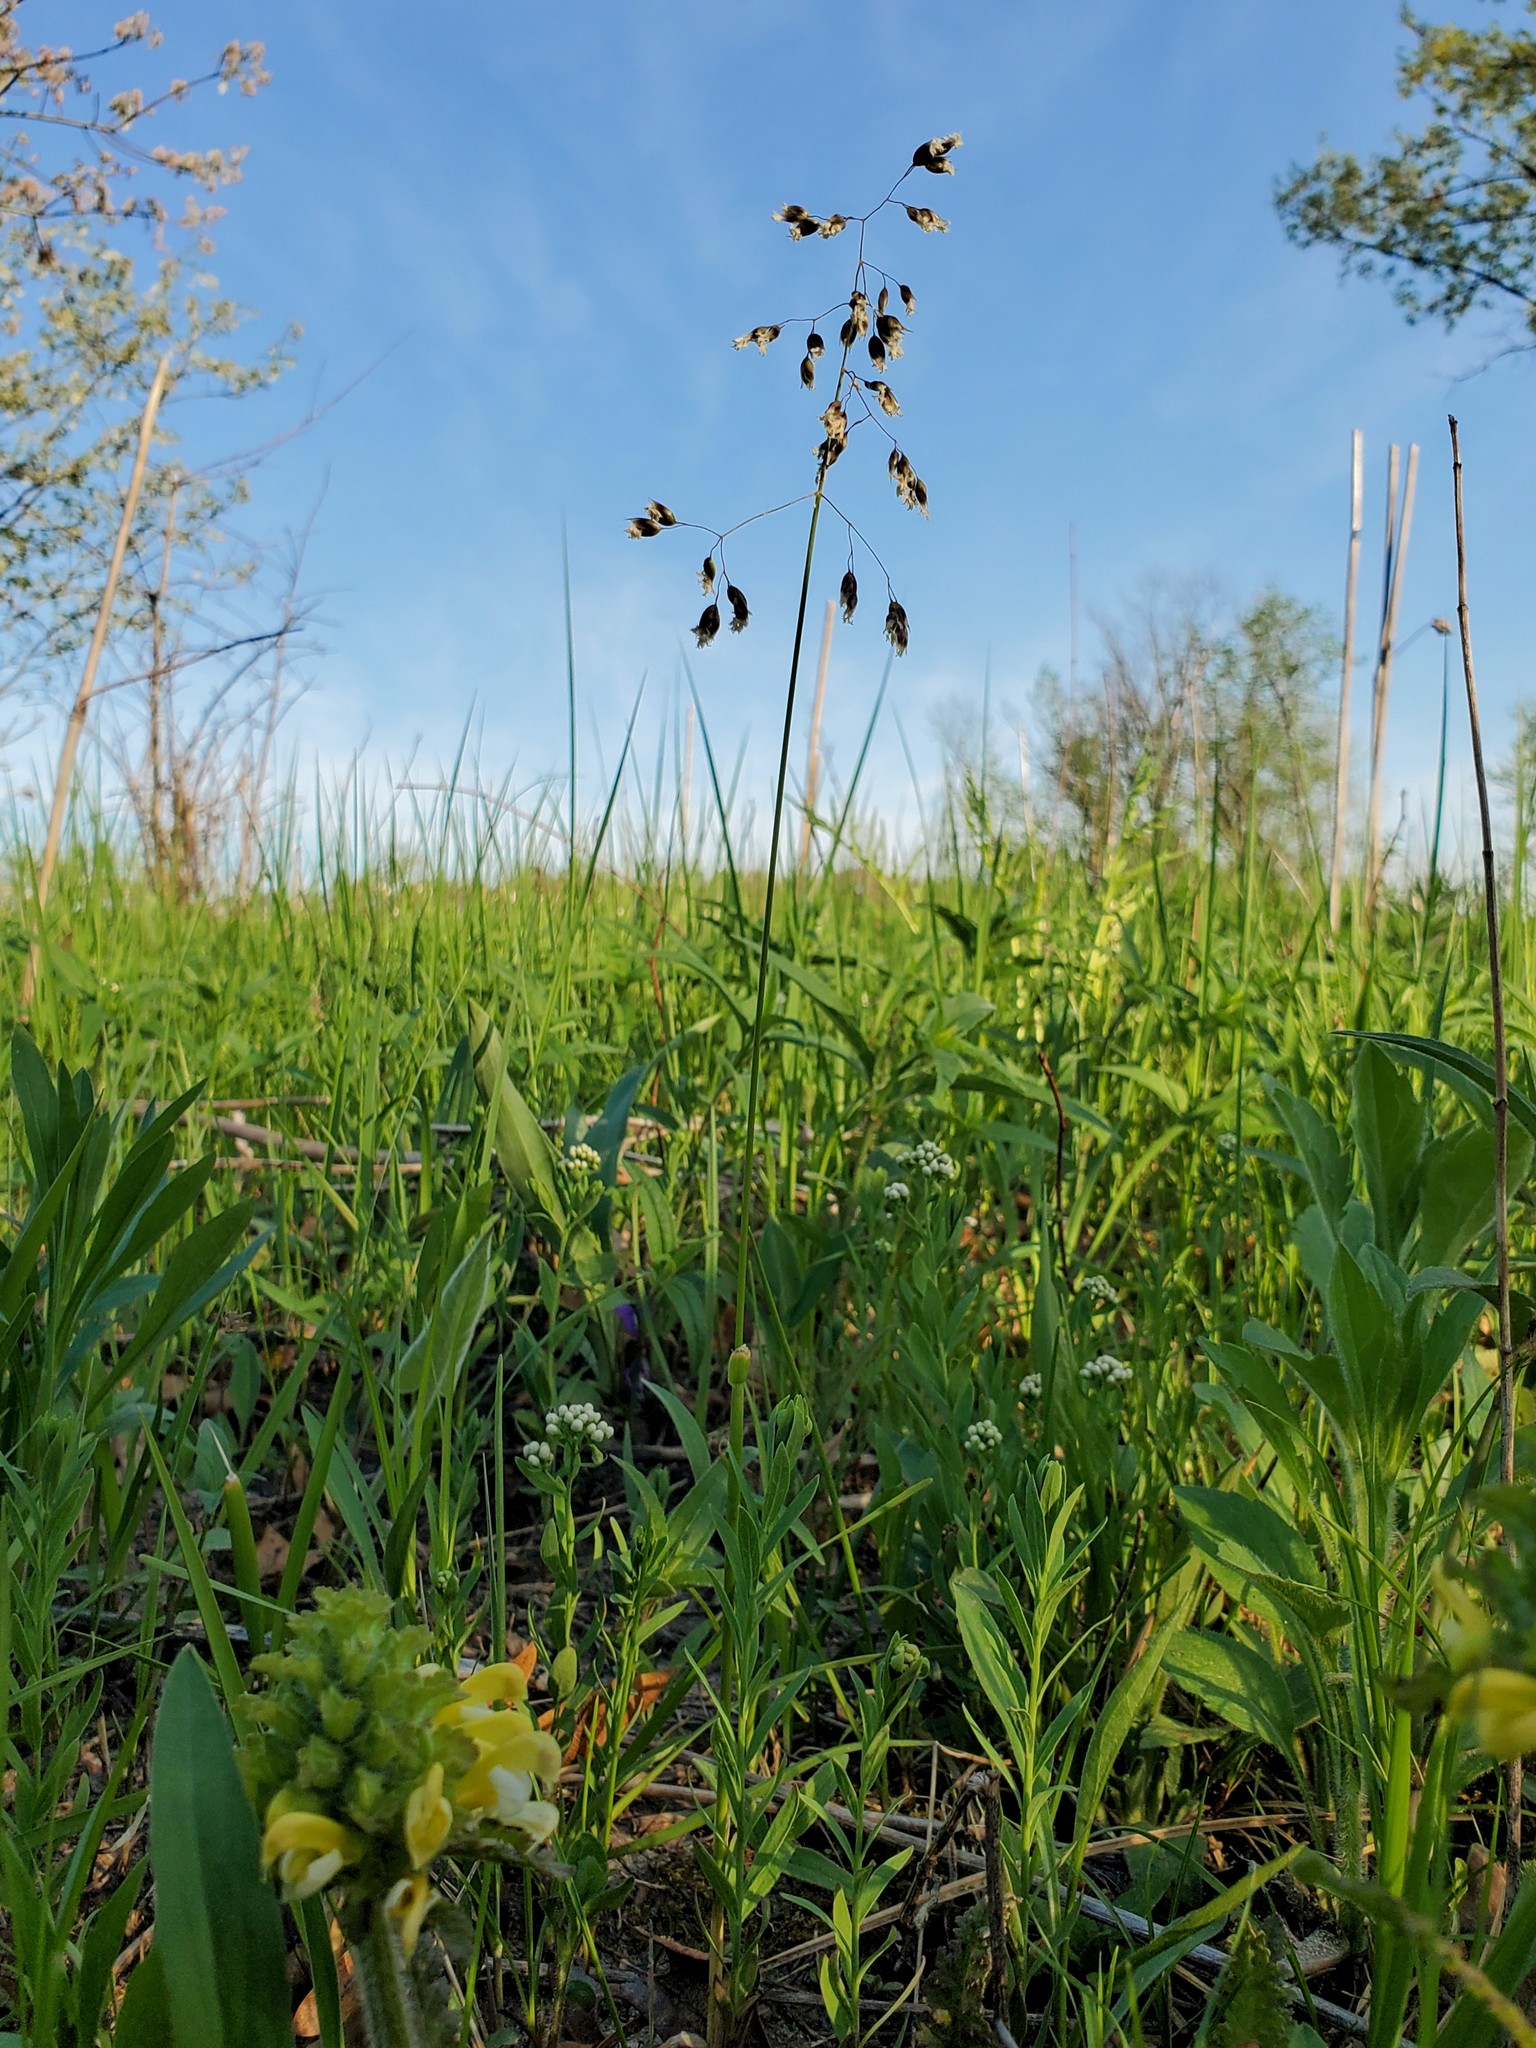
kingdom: Plantae
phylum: Tracheophyta
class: Magnoliopsida
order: Lamiales
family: Orobanchaceae
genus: Pedicularis
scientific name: Pedicularis canadensis
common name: Early lousewort
